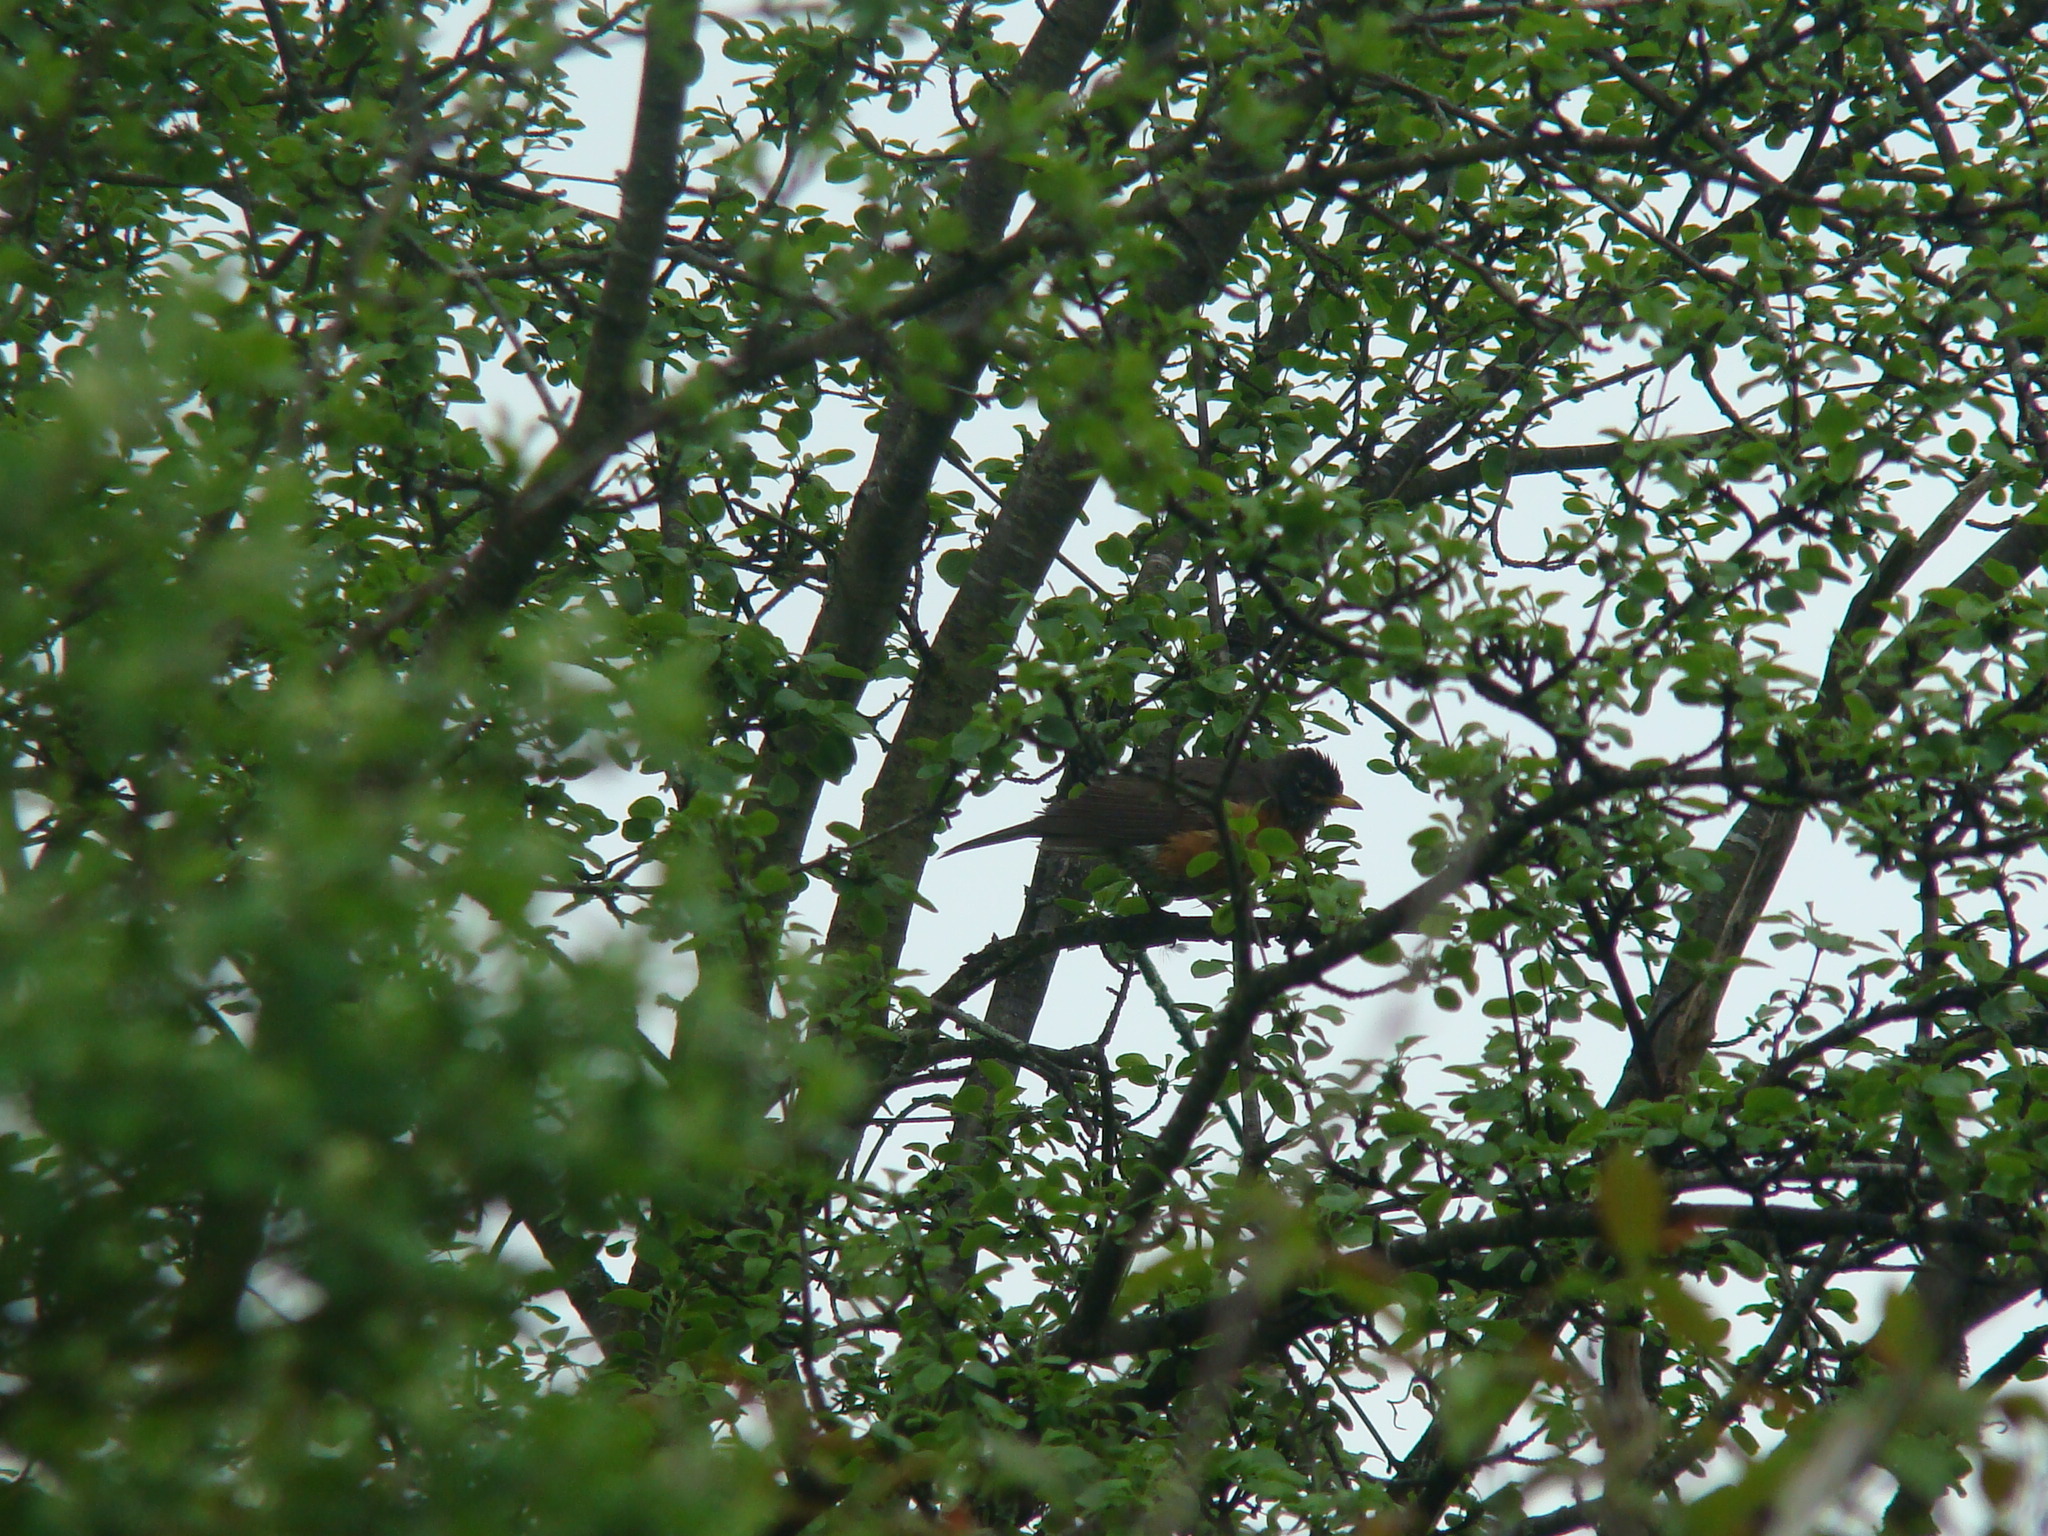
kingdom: Animalia
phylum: Chordata
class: Aves
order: Passeriformes
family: Turdidae
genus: Turdus
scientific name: Turdus migratorius
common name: American robin
